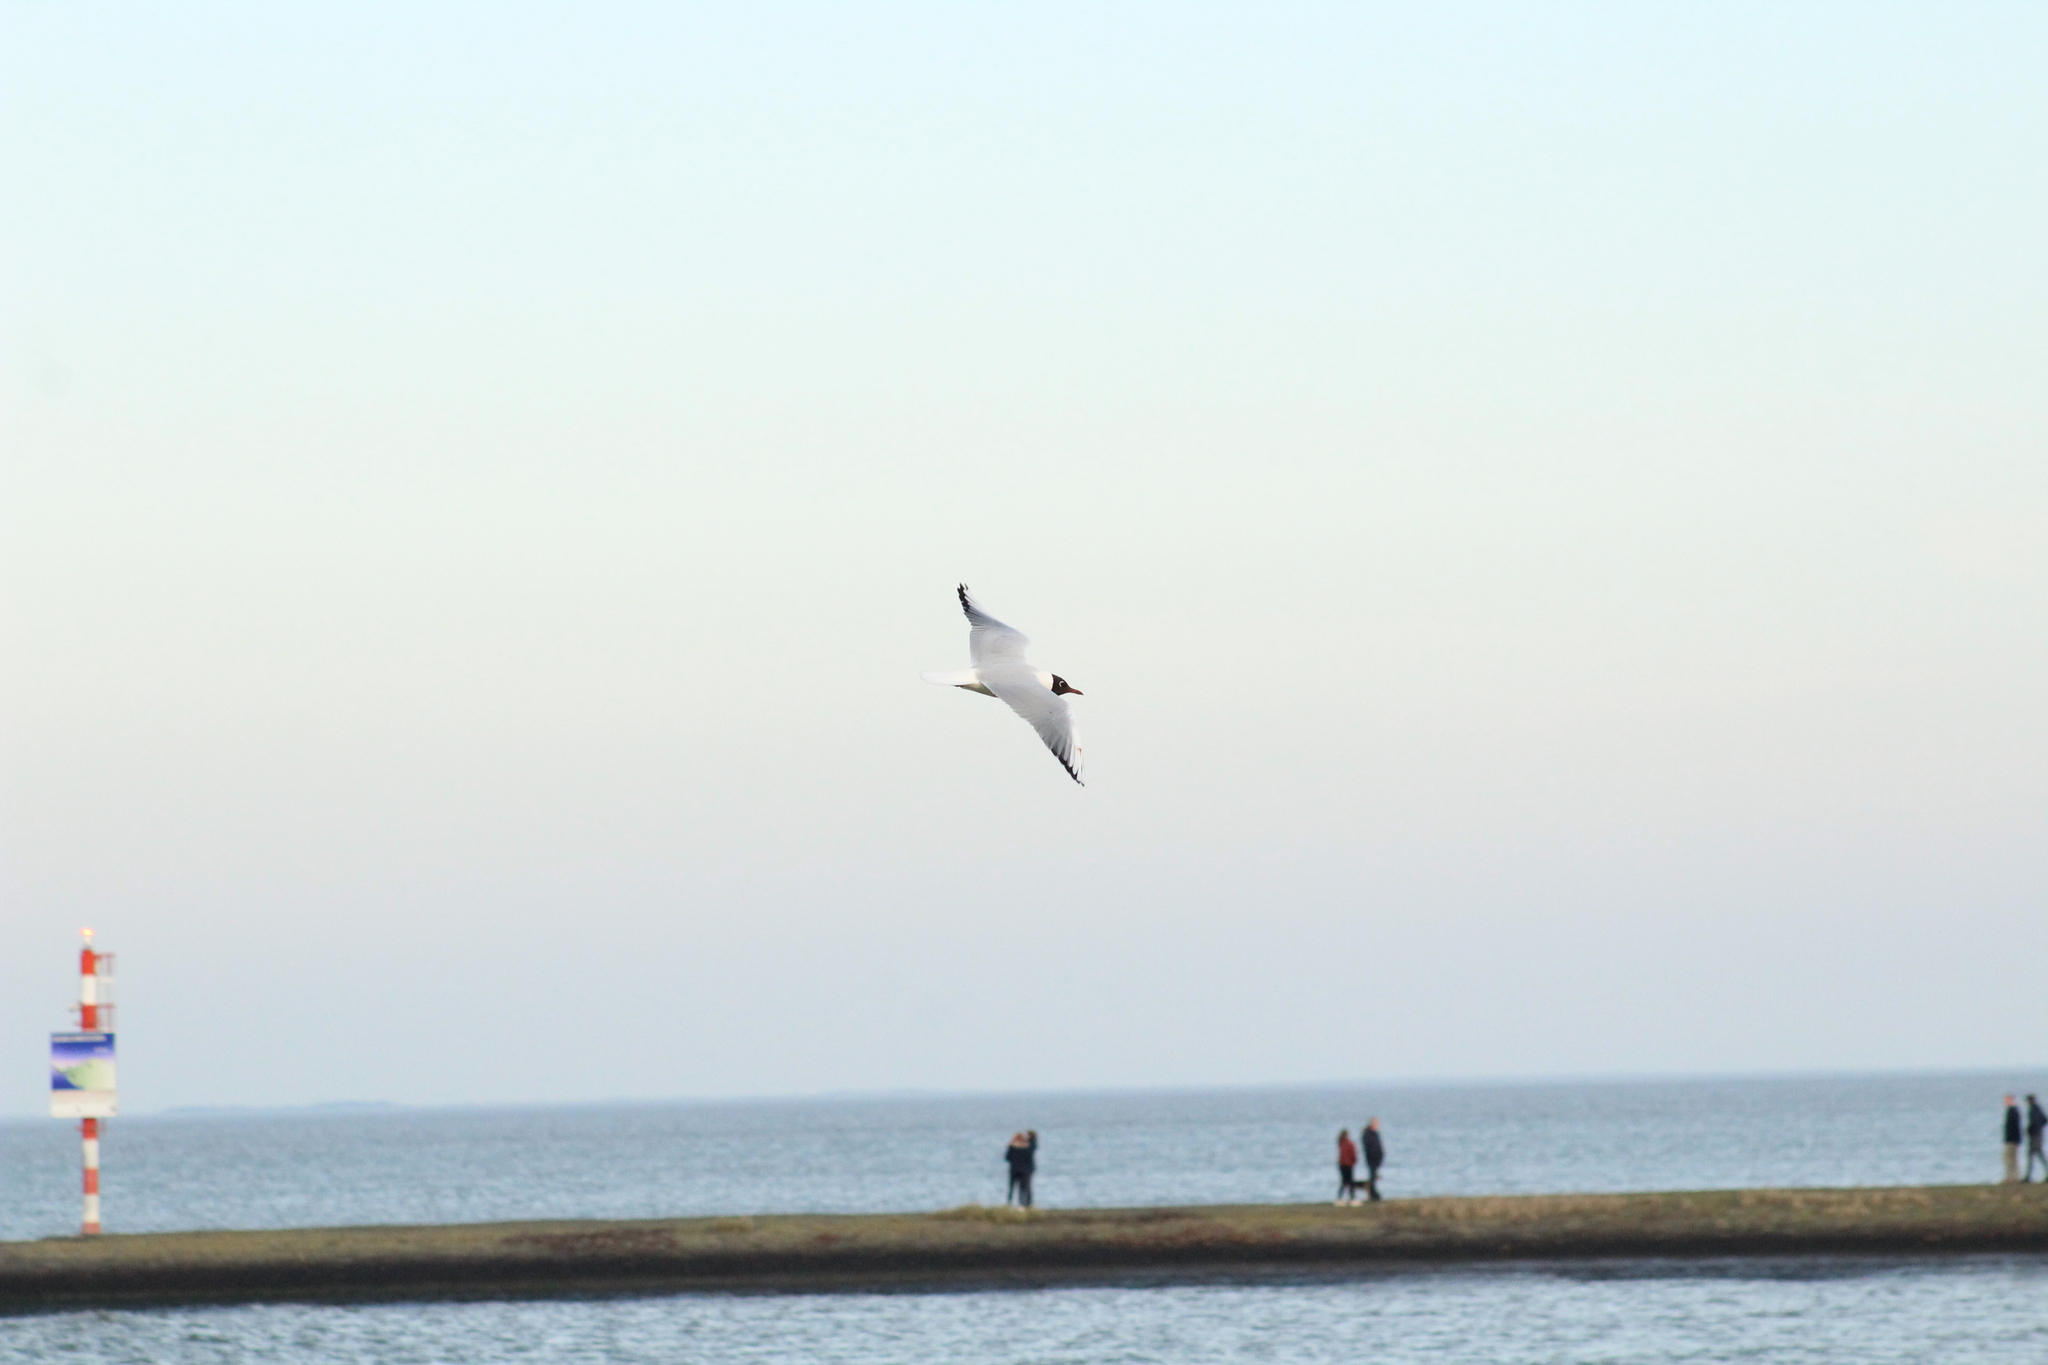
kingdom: Animalia
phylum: Chordata
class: Aves
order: Charadriiformes
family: Laridae
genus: Chroicocephalus
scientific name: Chroicocephalus ridibundus
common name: Black-headed gull
